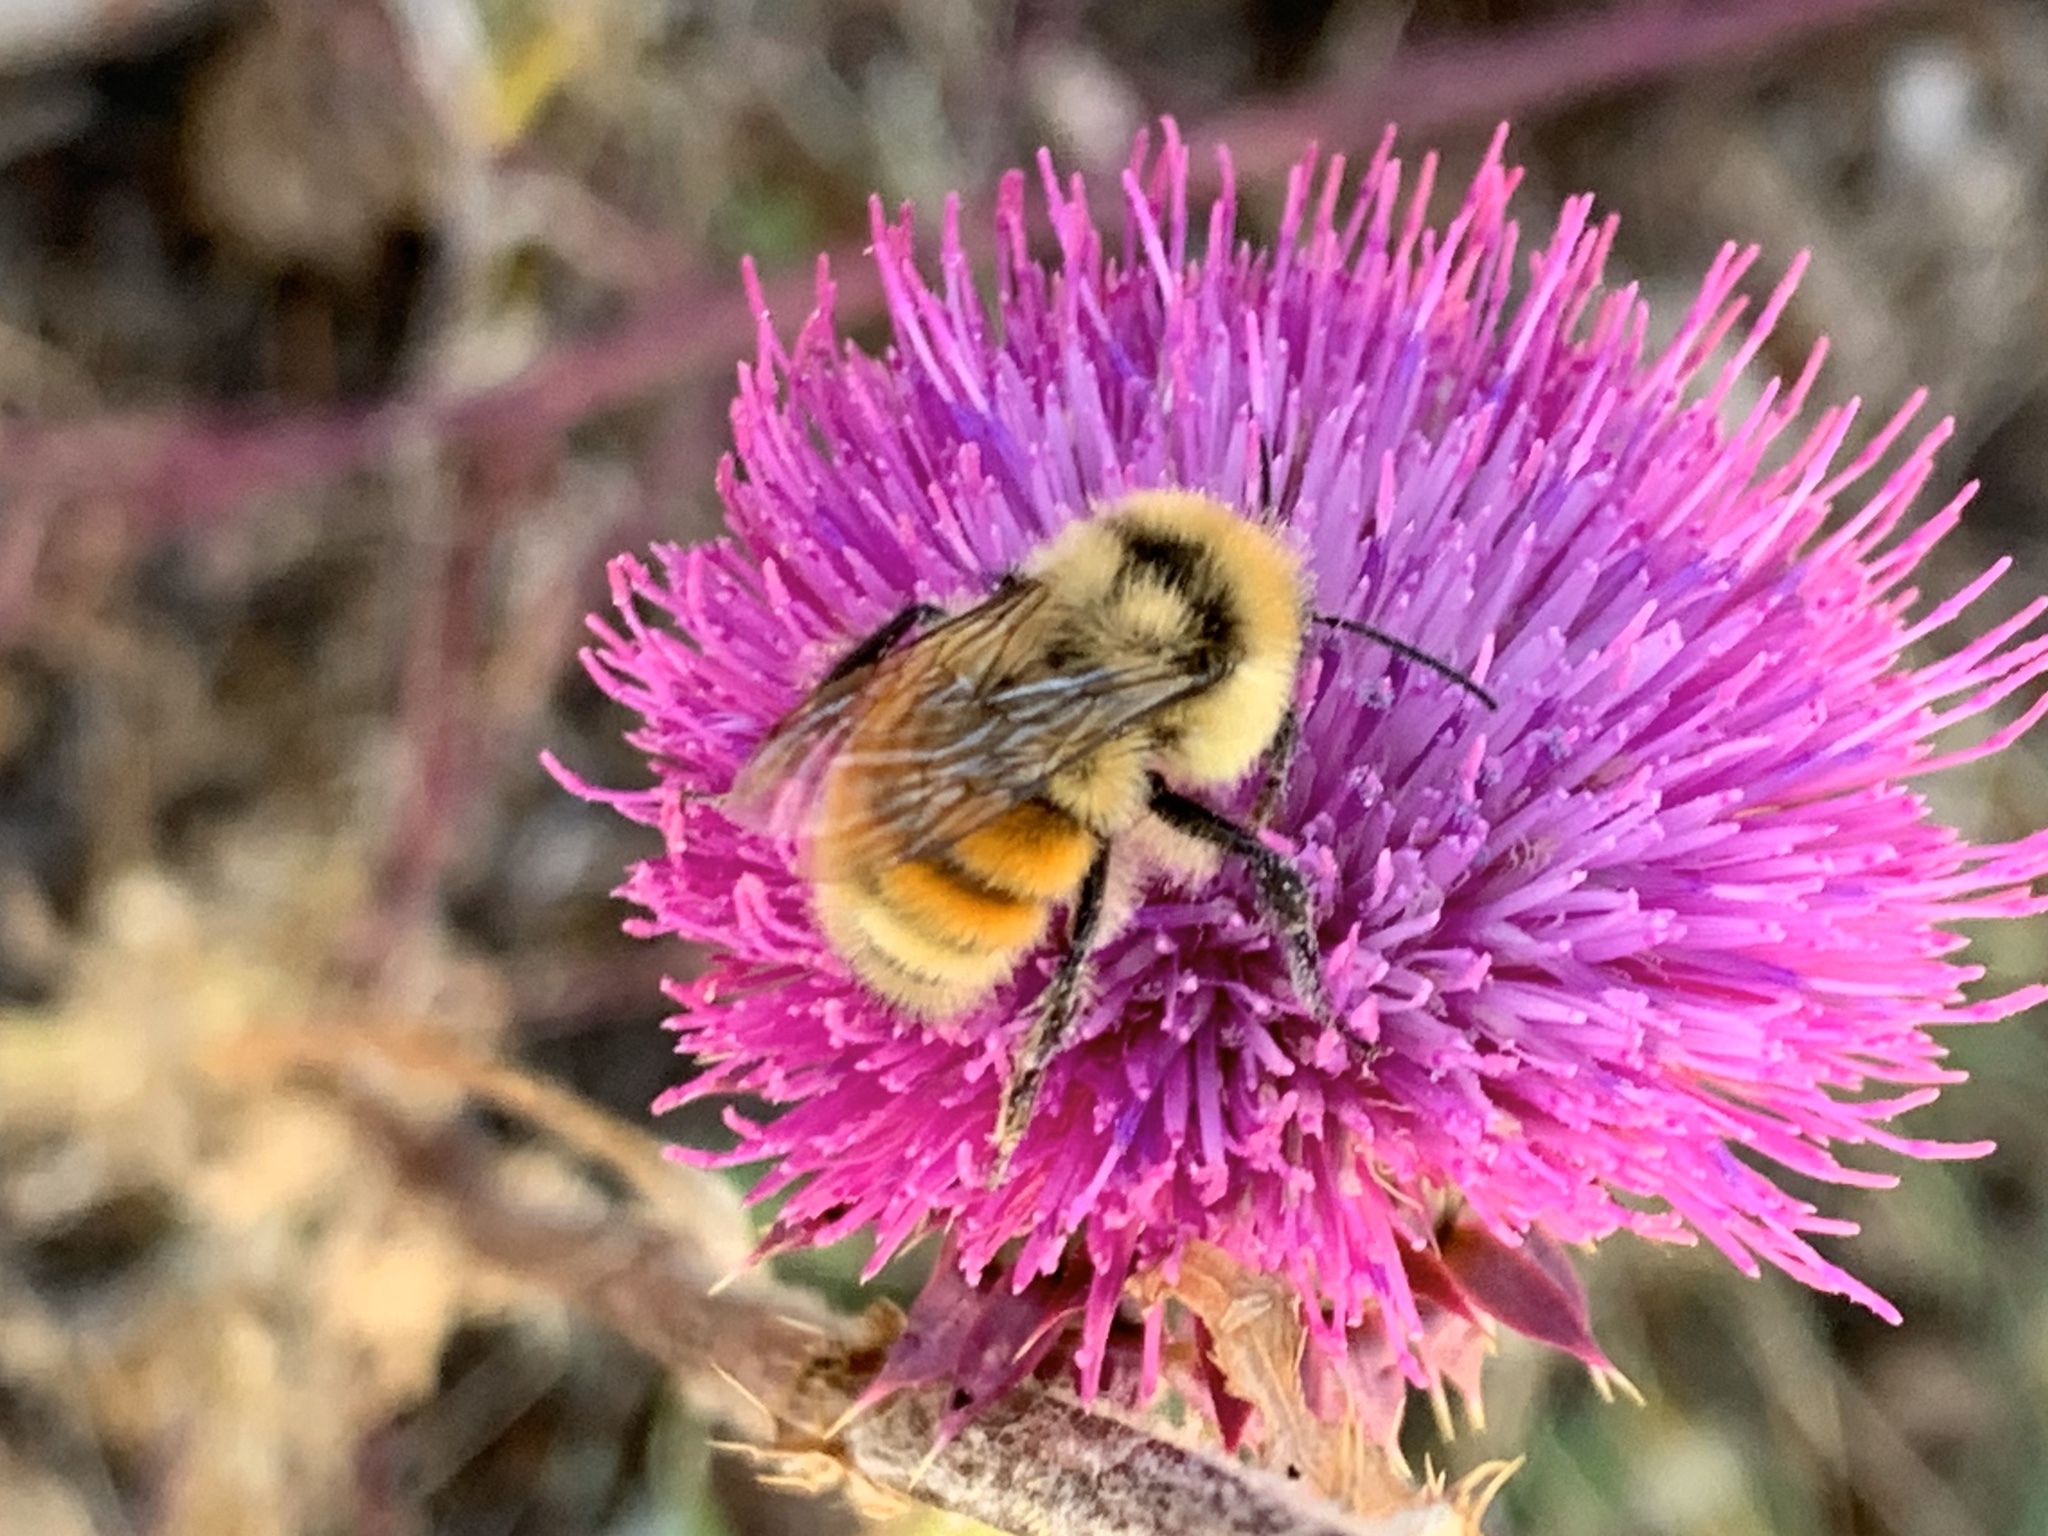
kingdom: Animalia
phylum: Arthropoda
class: Insecta
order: Hymenoptera
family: Apidae
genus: Bombus
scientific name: Bombus huntii
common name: Hunt bumble bee
